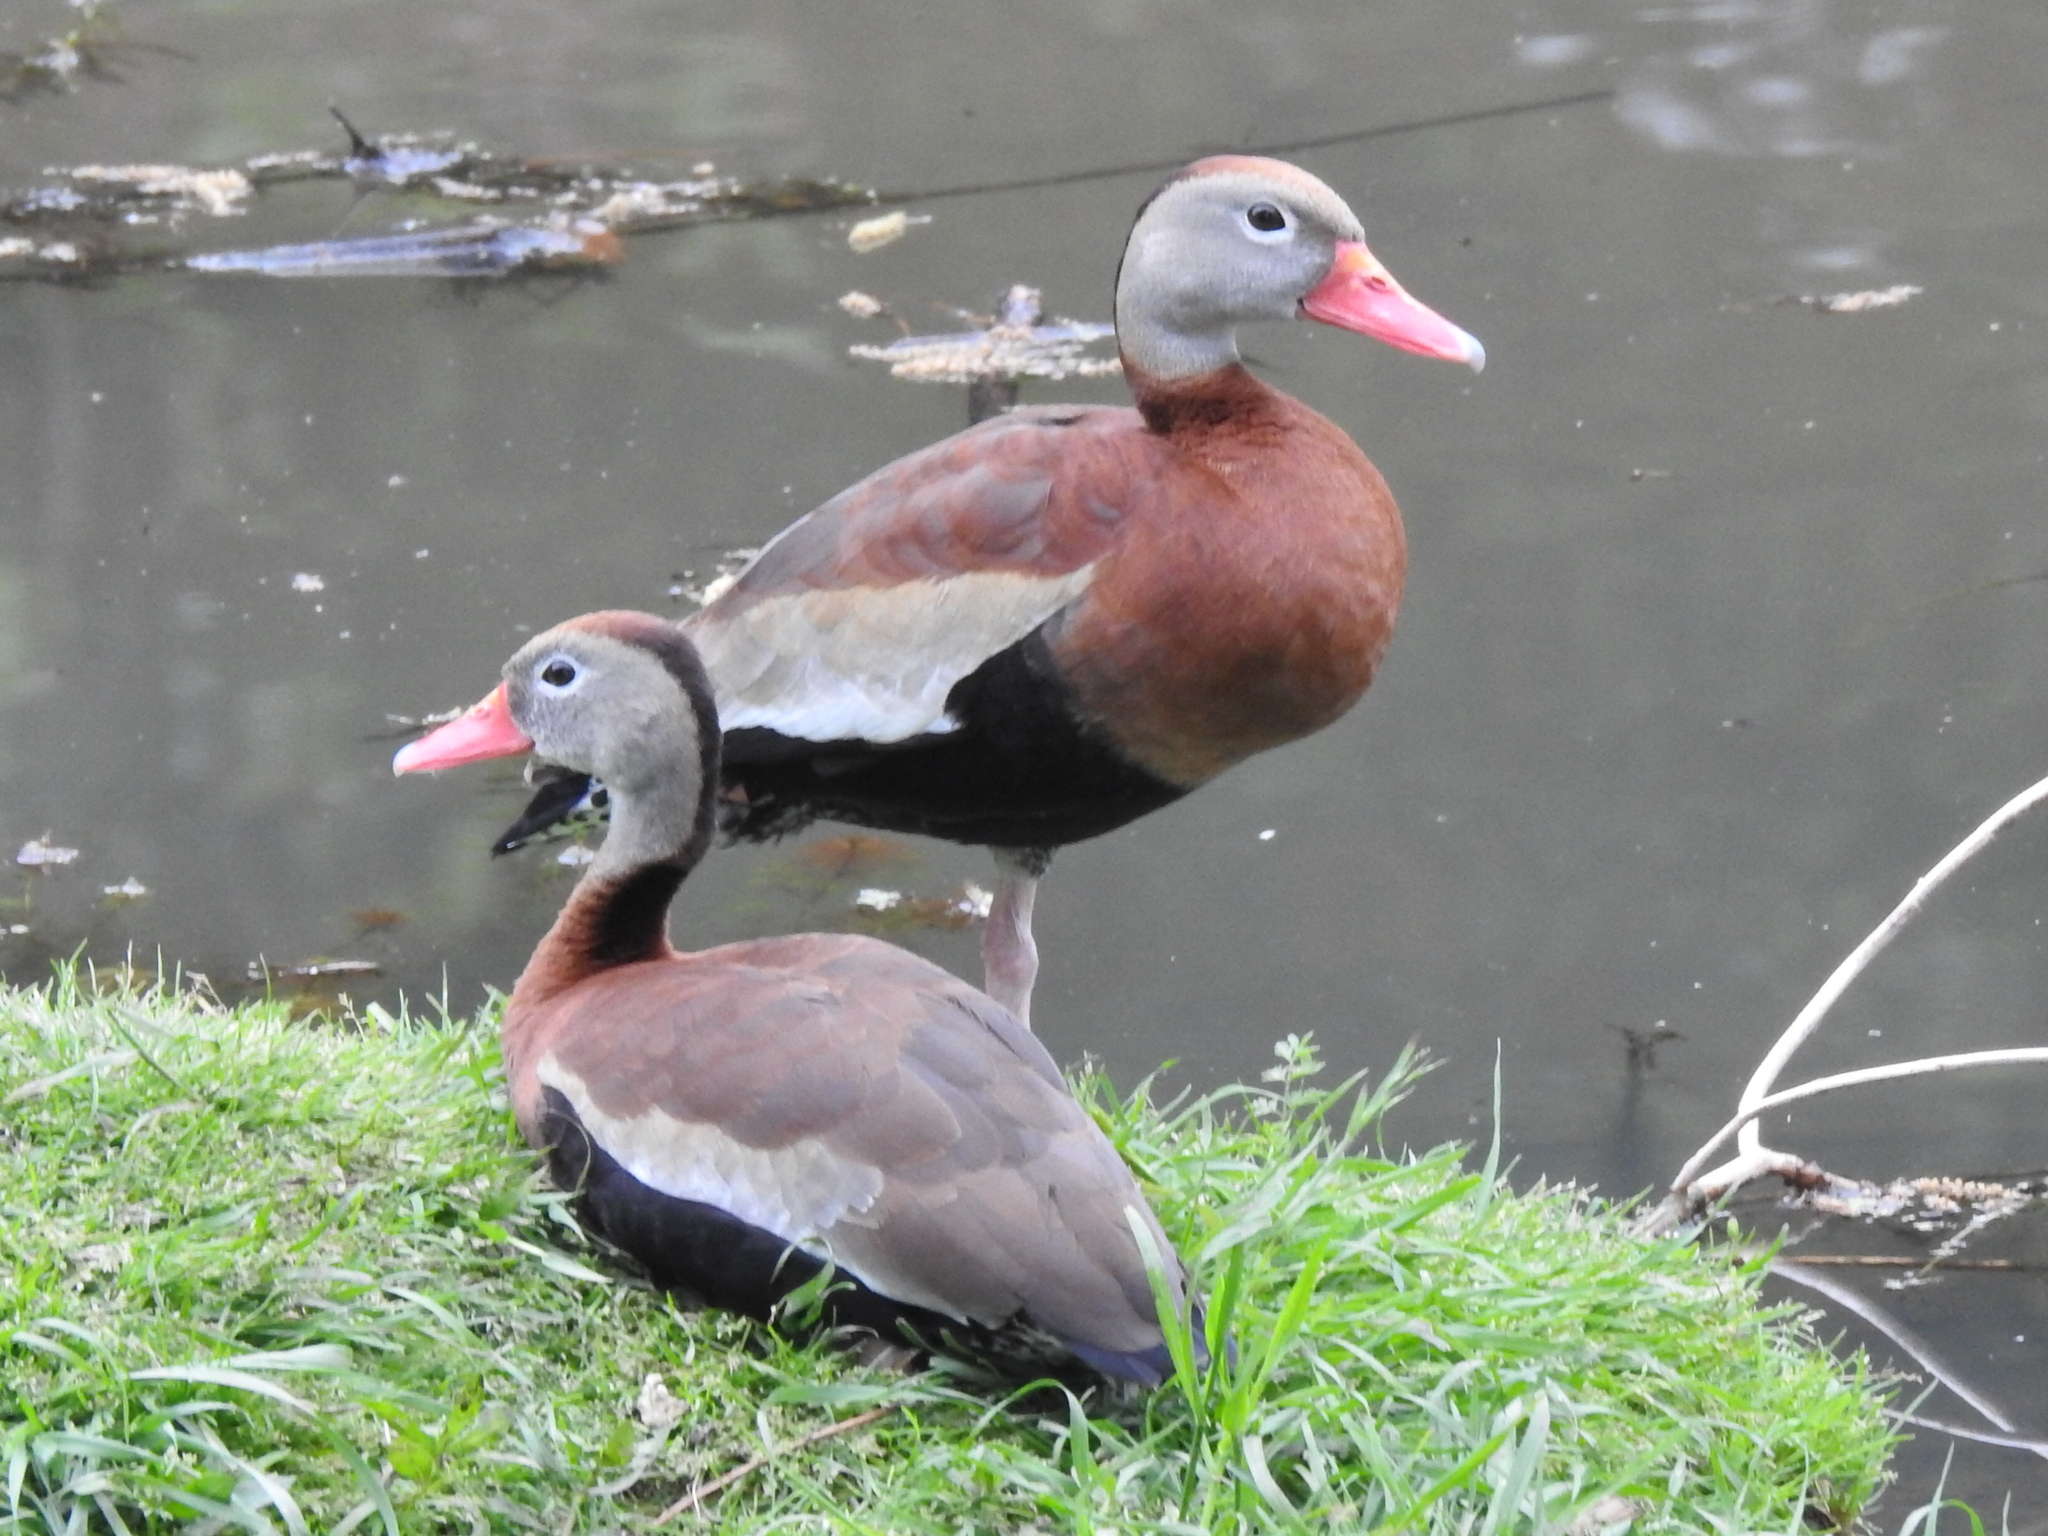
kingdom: Animalia
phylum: Chordata
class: Aves
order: Anseriformes
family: Anatidae
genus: Dendrocygna
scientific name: Dendrocygna autumnalis
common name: Black-bellied whistling duck
